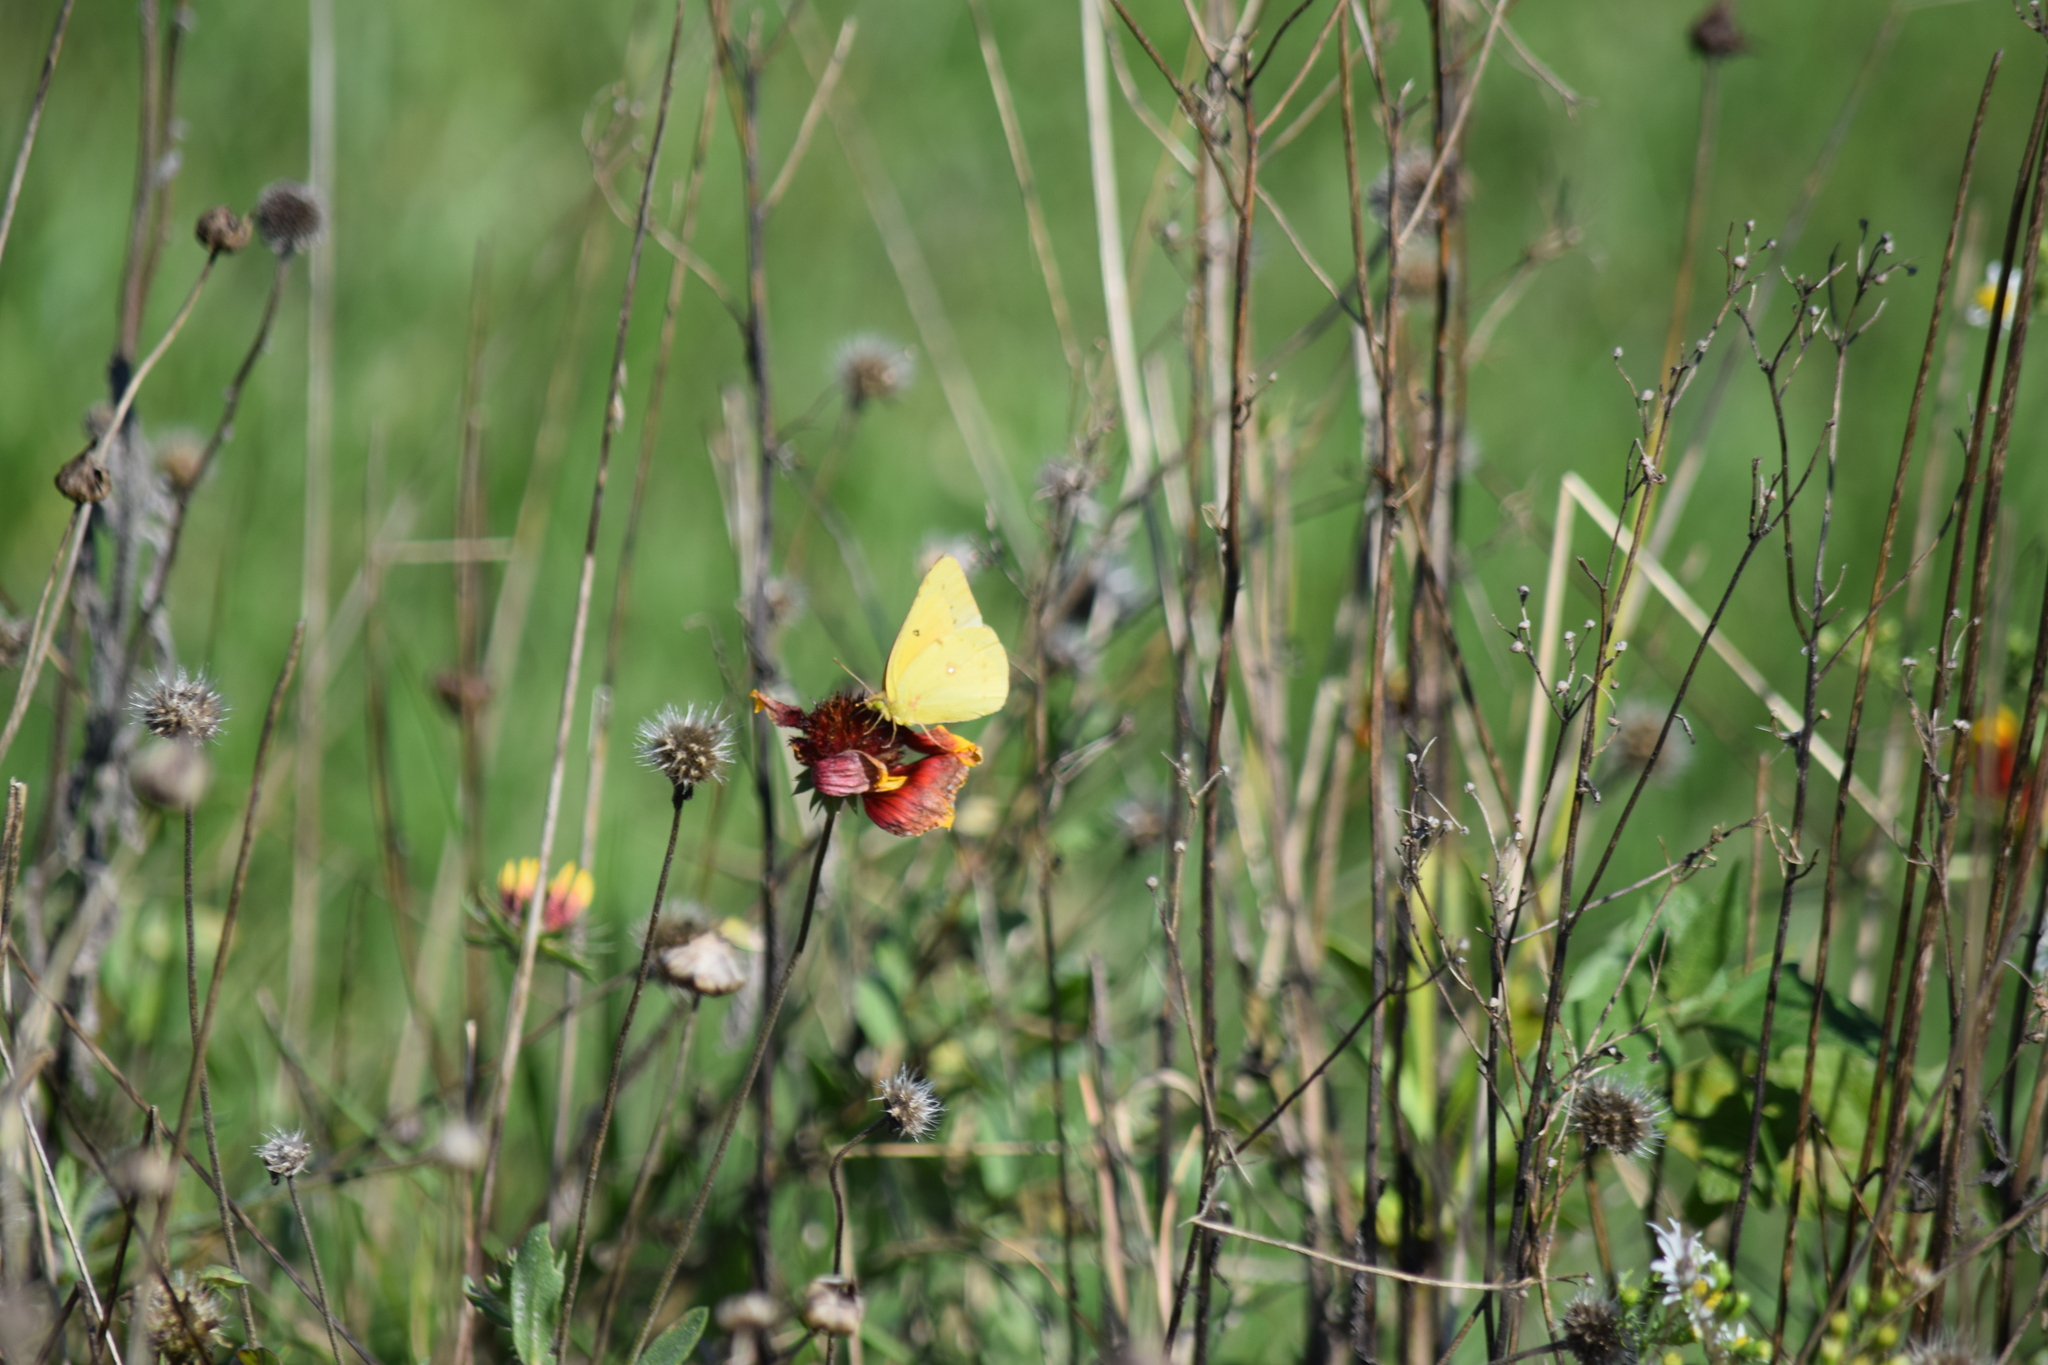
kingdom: Animalia
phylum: Arthropoda
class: Insecta
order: Lepidoptera
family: Pieridae
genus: Colias
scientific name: Colias eurytheme
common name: Alfalfa butterfly
